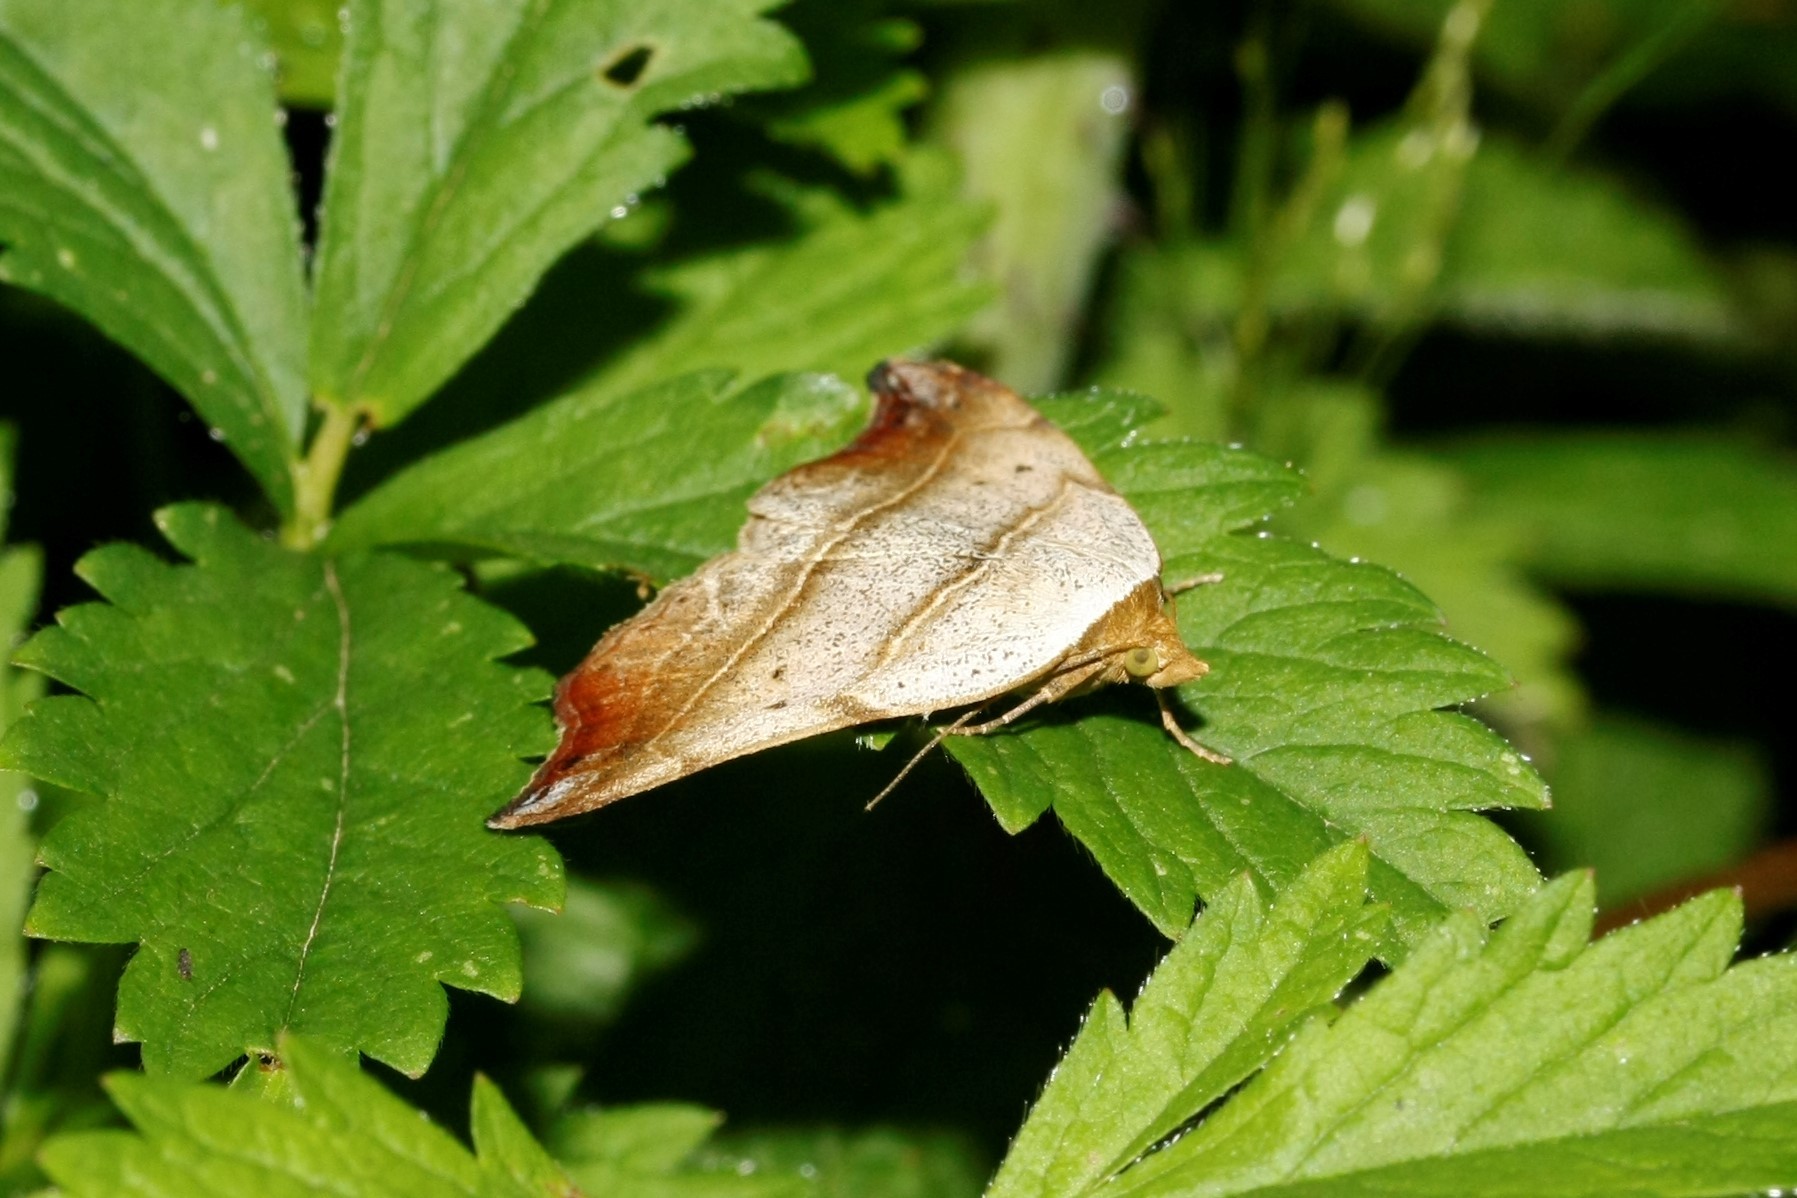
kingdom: Animalia
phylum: Arthropoda
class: Insecta
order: Lepidoptera
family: Erebidae
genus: Laspeyria
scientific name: Laspeyria flexula
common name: Beautiful hook-tip
